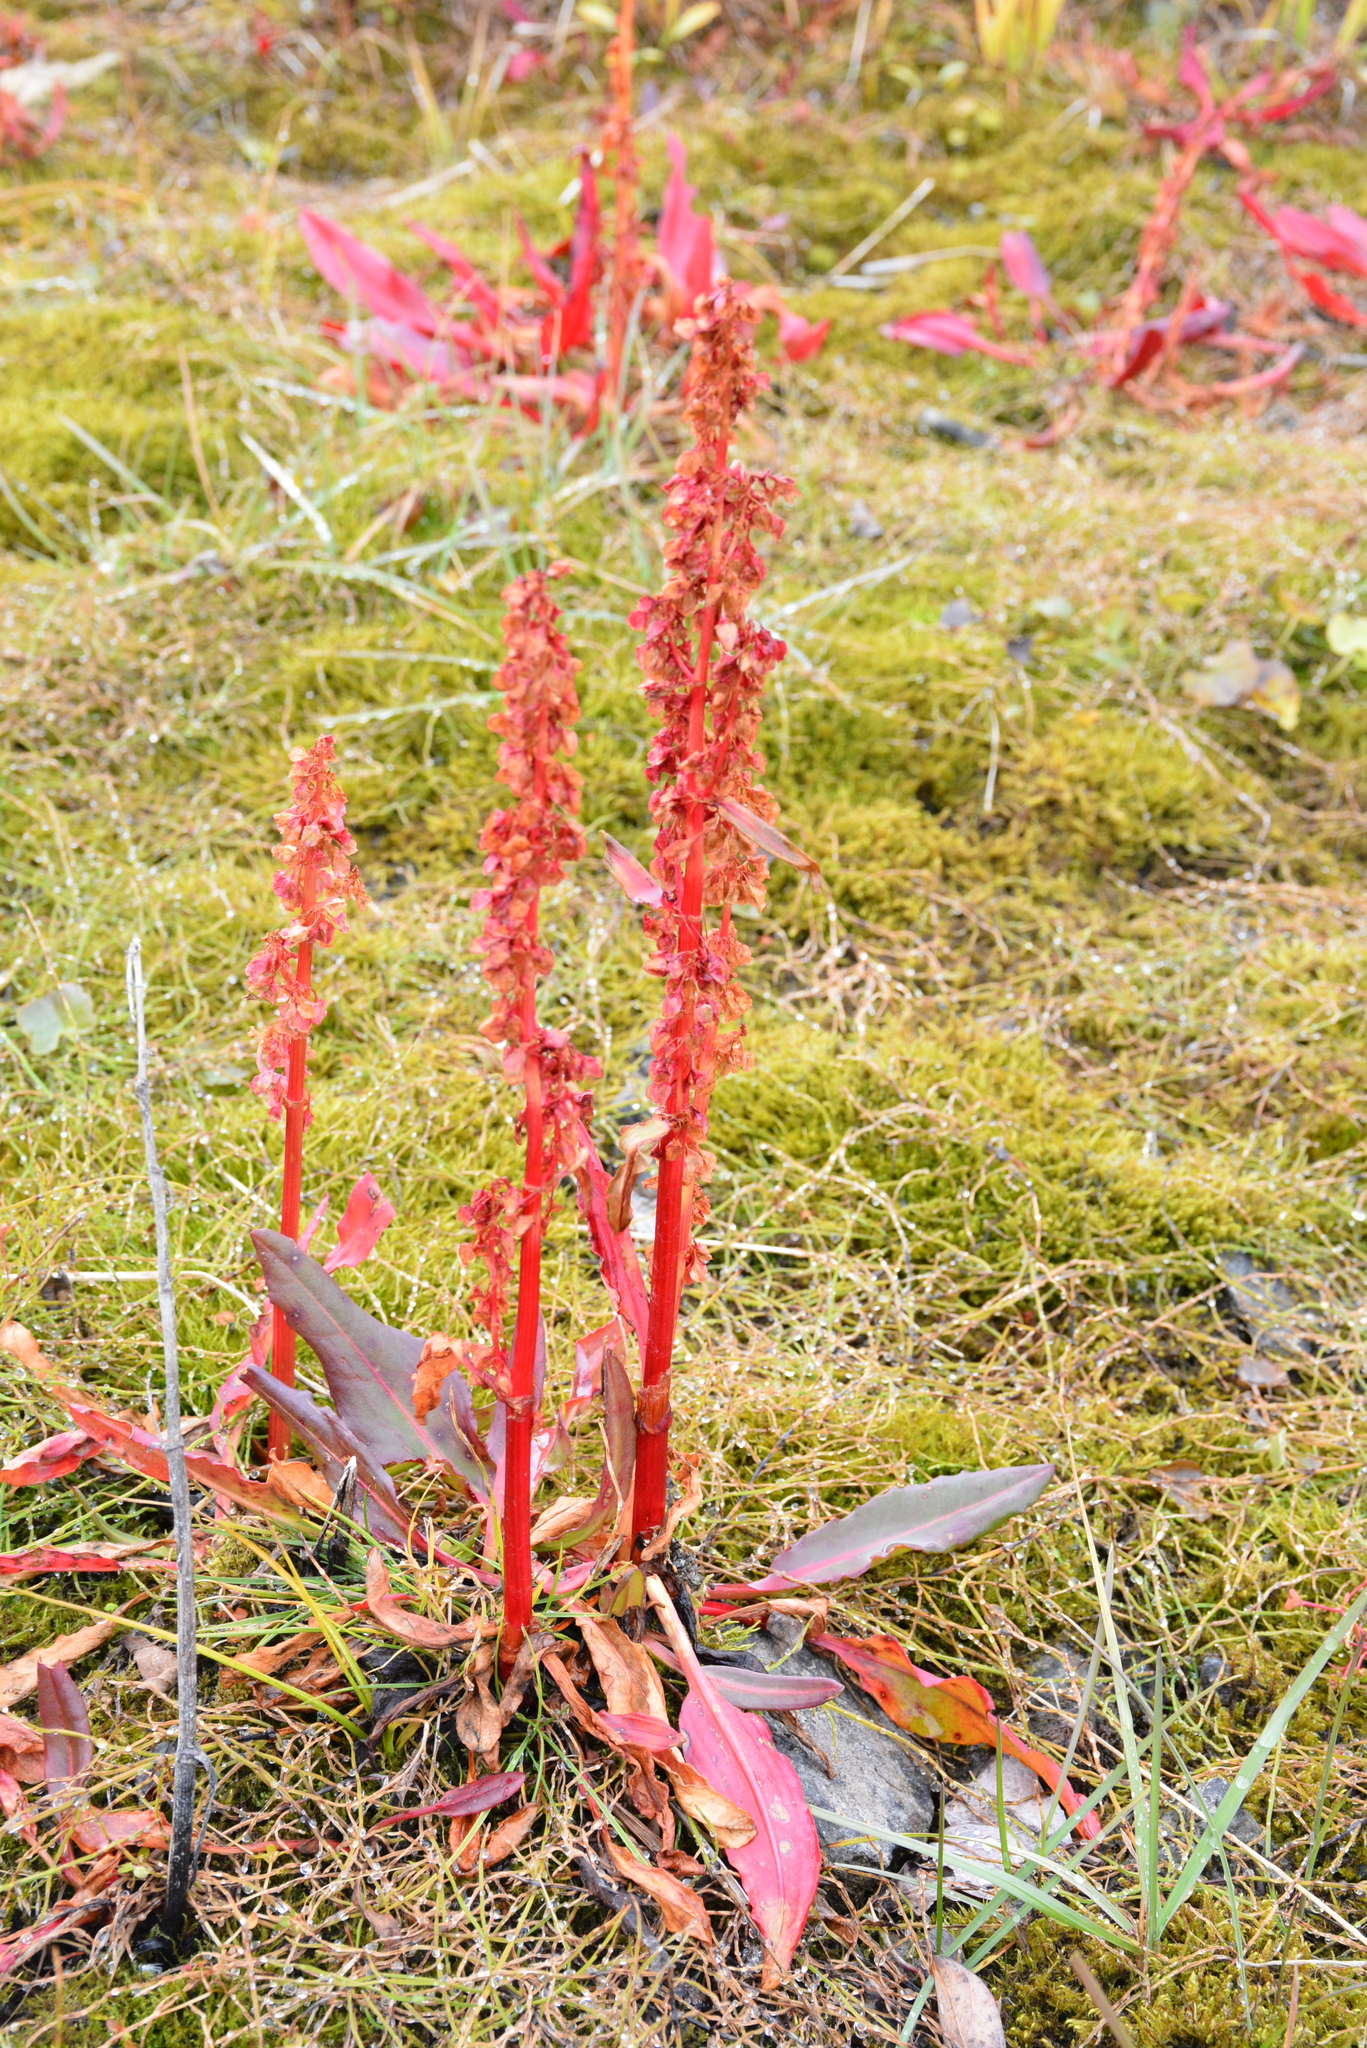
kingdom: Plantae
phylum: Tracheophyta
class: Magnoliopsida
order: Caryophyllales
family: Polygonaceae
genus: Rumex
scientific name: Rumex arcticus
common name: Arctic dock
